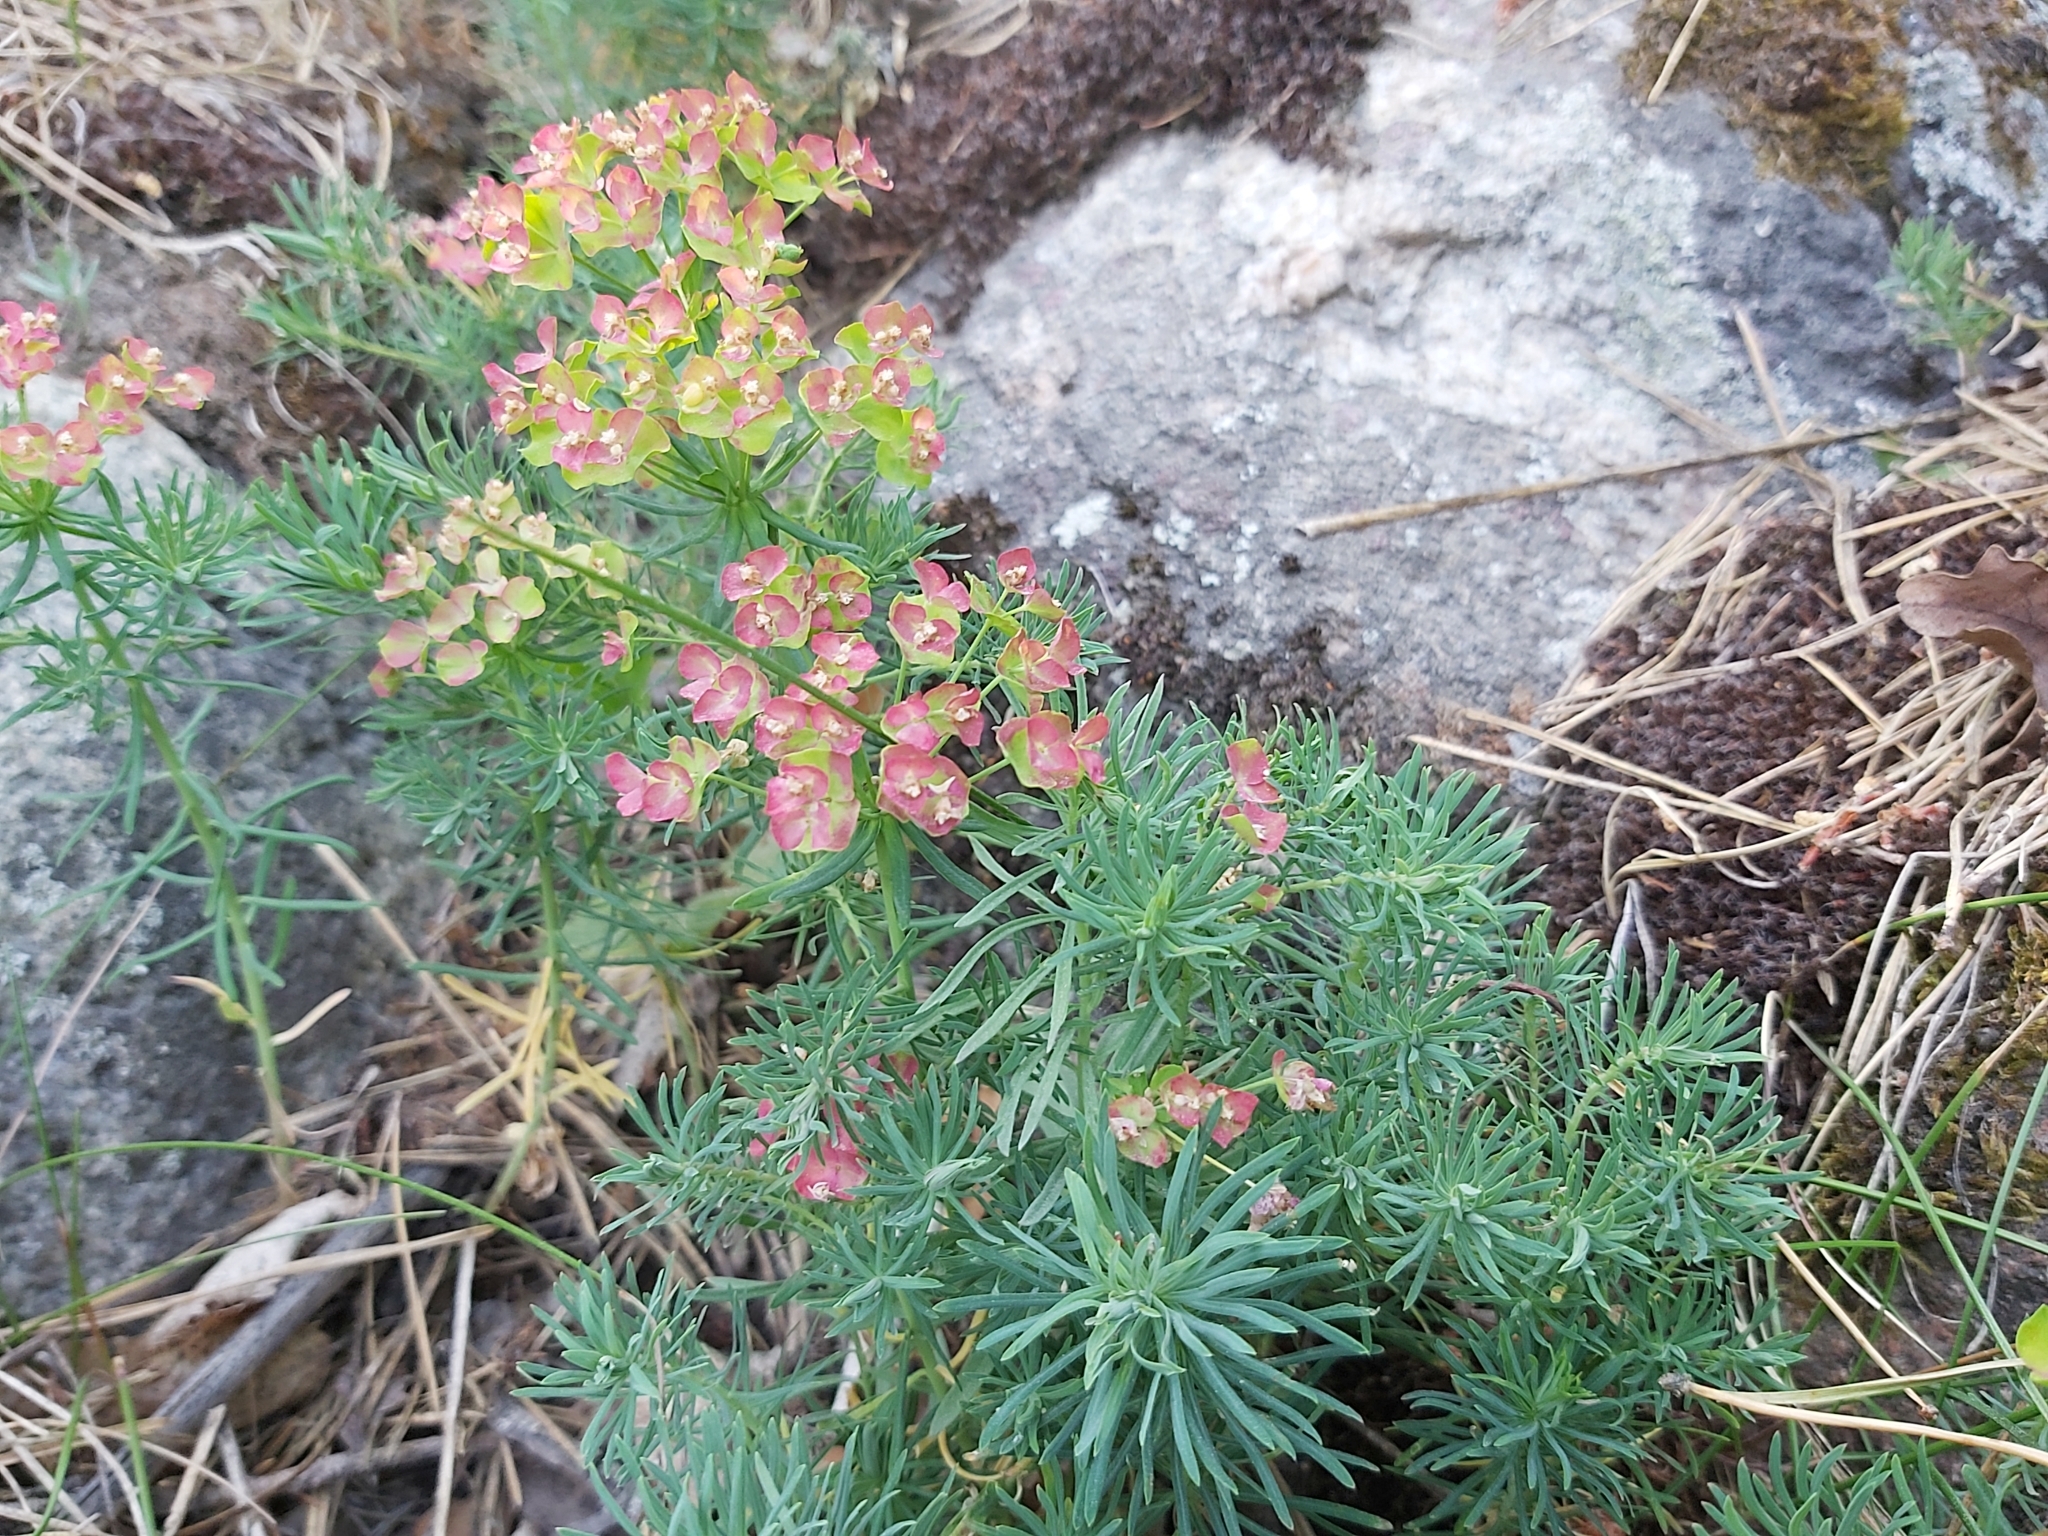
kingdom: Plantae
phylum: Tracheophyta
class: Magnoliopsida
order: Malpighiales
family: Euphorbiaceae
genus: Euphorbia
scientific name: Euphorbia cyparissias
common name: Cypress spurge
